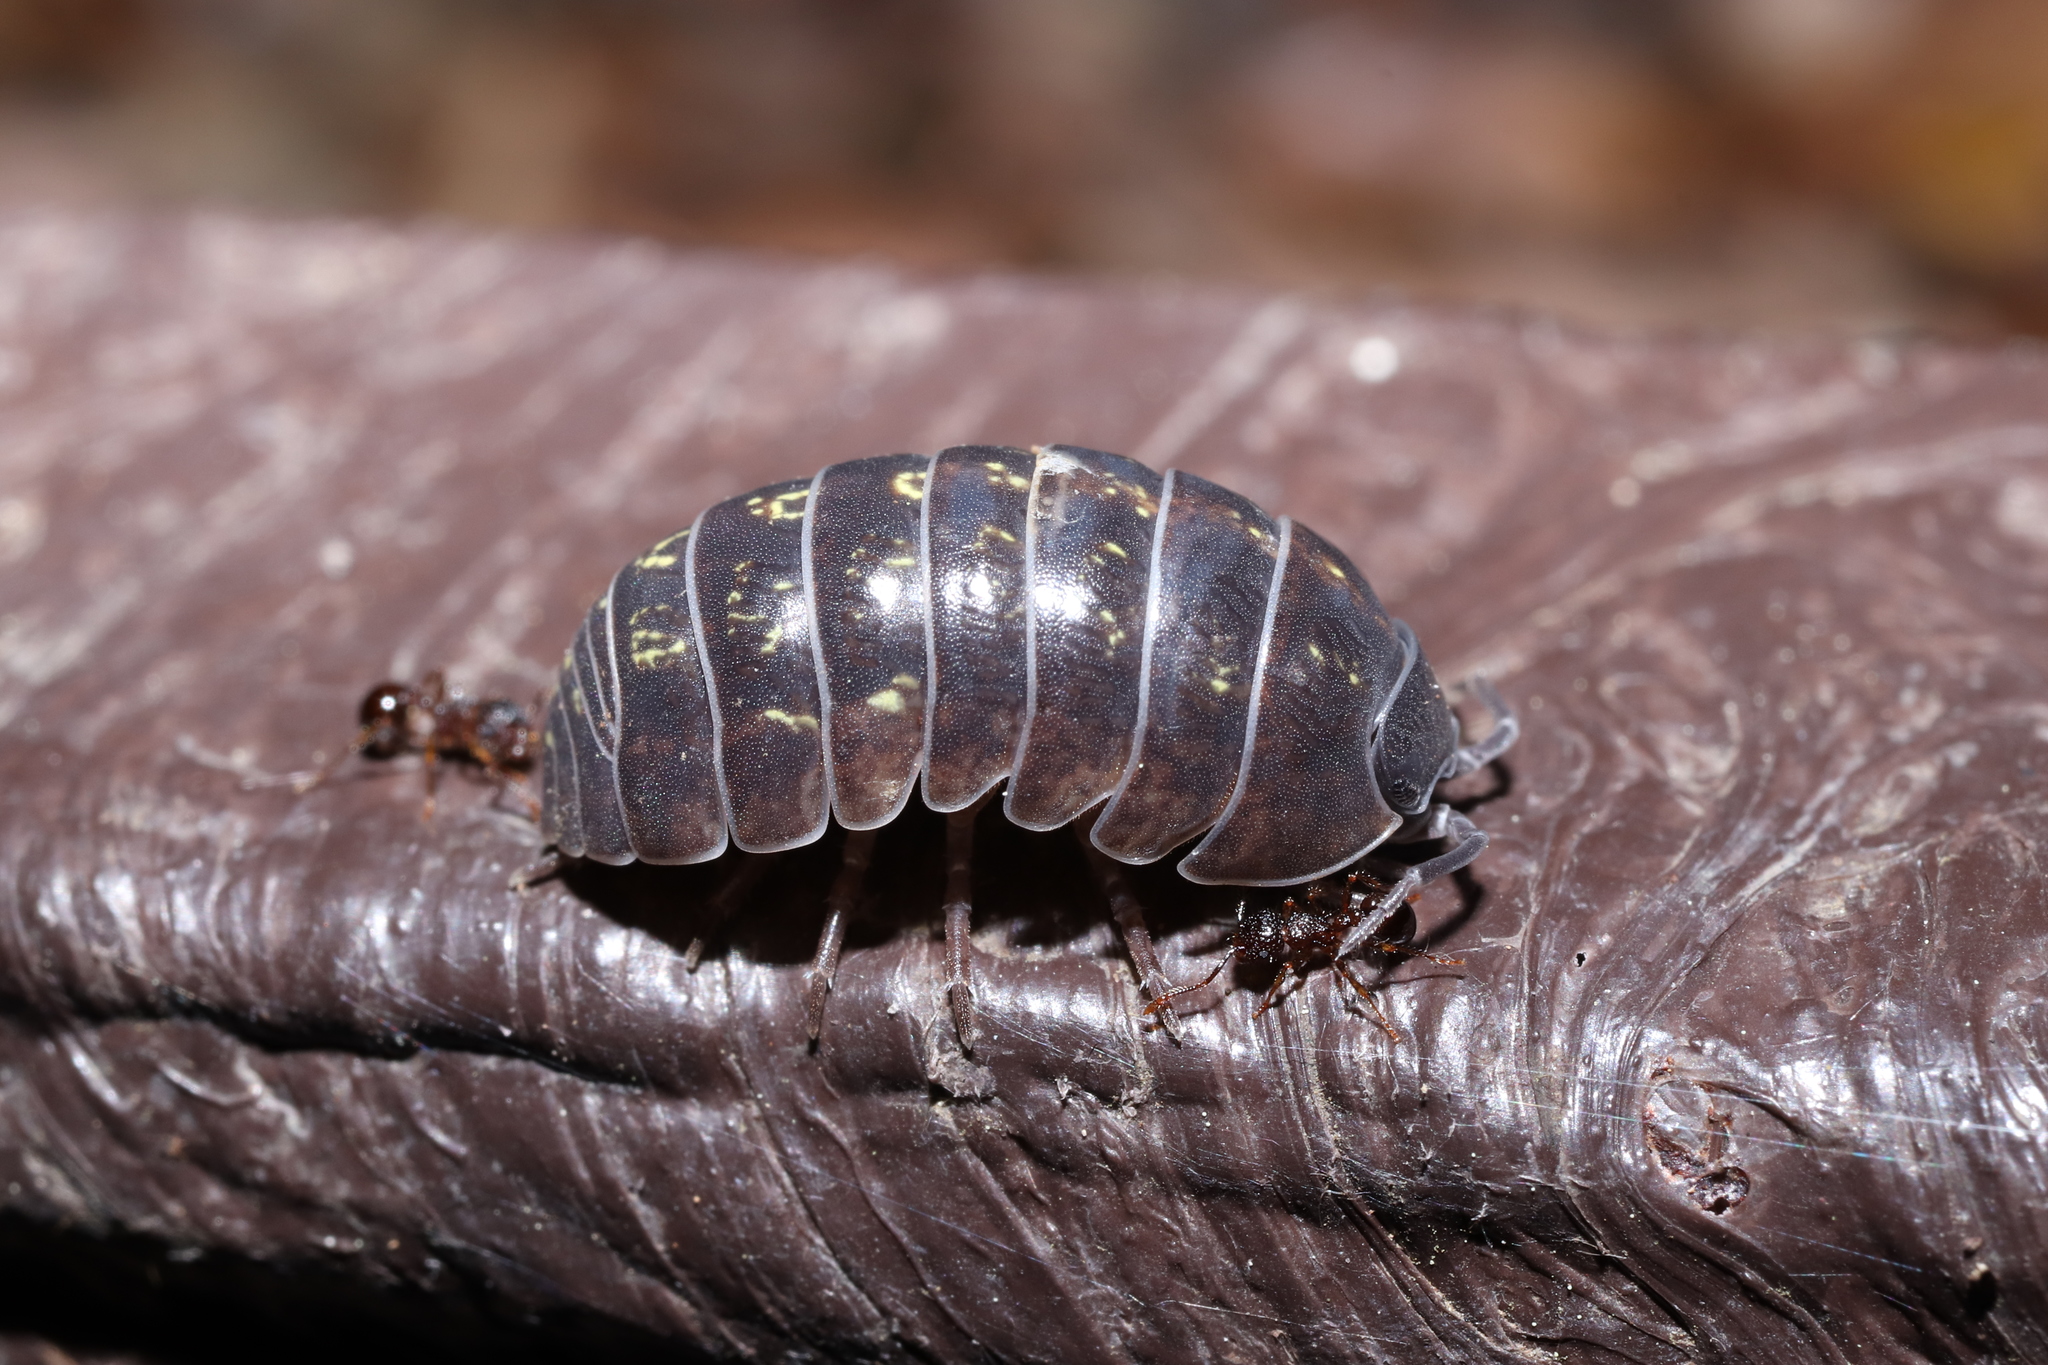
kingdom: Animalia
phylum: Arthropoda
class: Malacostraca
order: Isopoda
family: Armadillidiidae
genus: Armadillidium
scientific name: Armadillidium vulgare
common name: Common pill woodlouse
